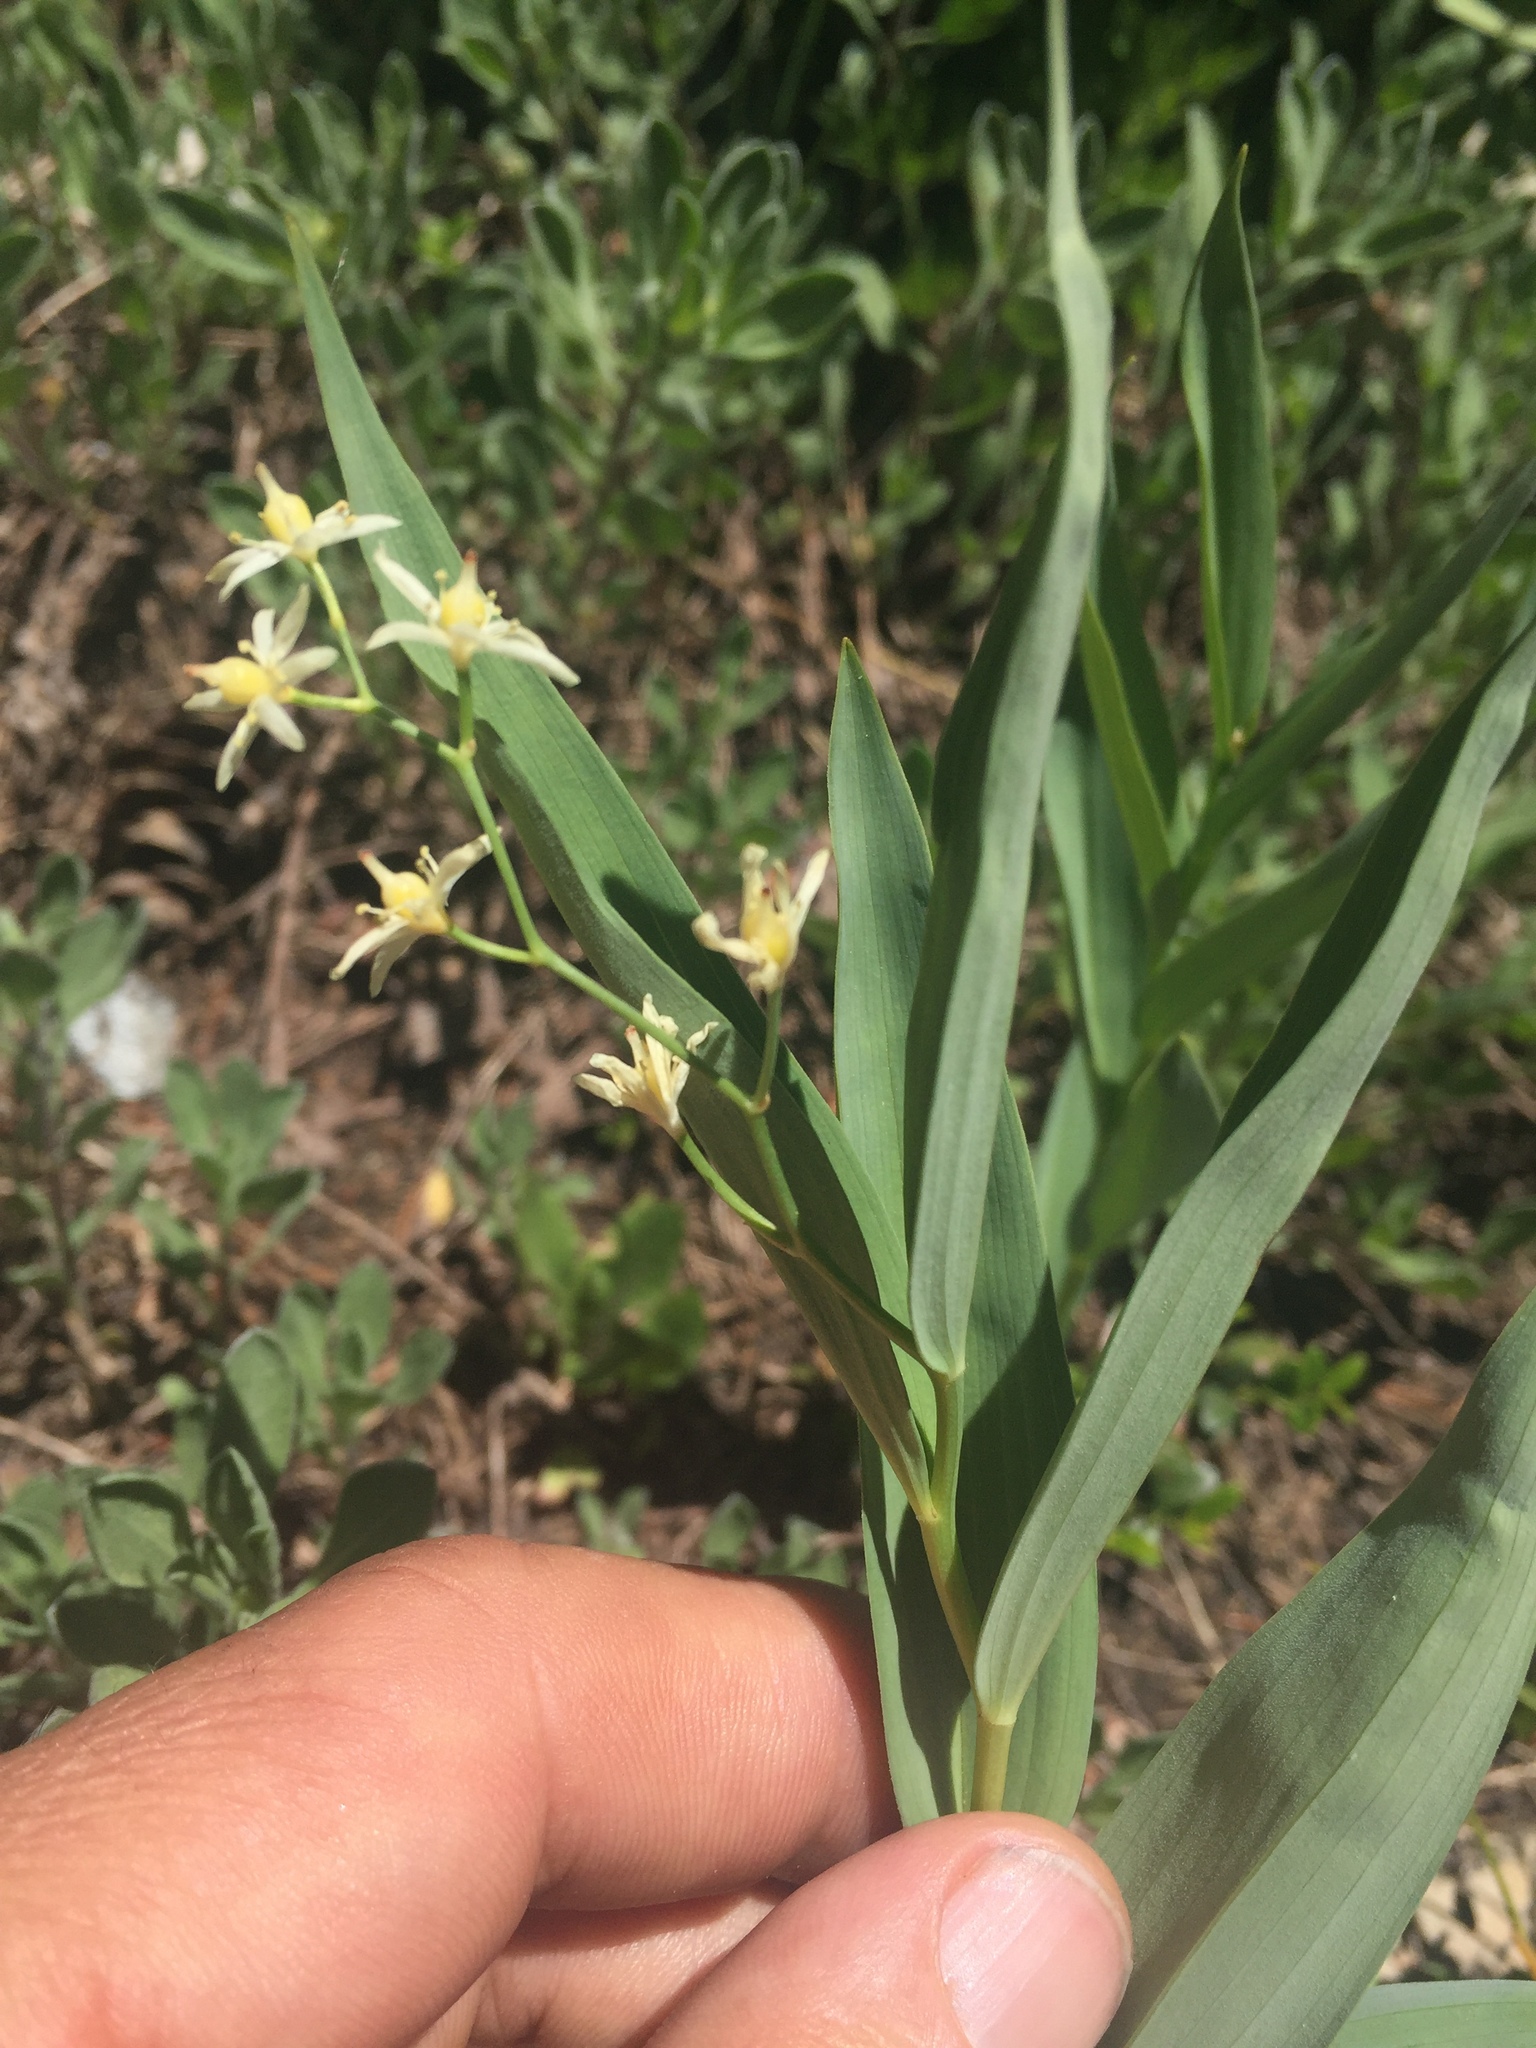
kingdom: Plantae
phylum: Tracheophyta
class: Liliopsida
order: Asparagales
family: Asparagaceae
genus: Maianthemum
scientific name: Maianthemum stellatum
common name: Little false solomon's seal
